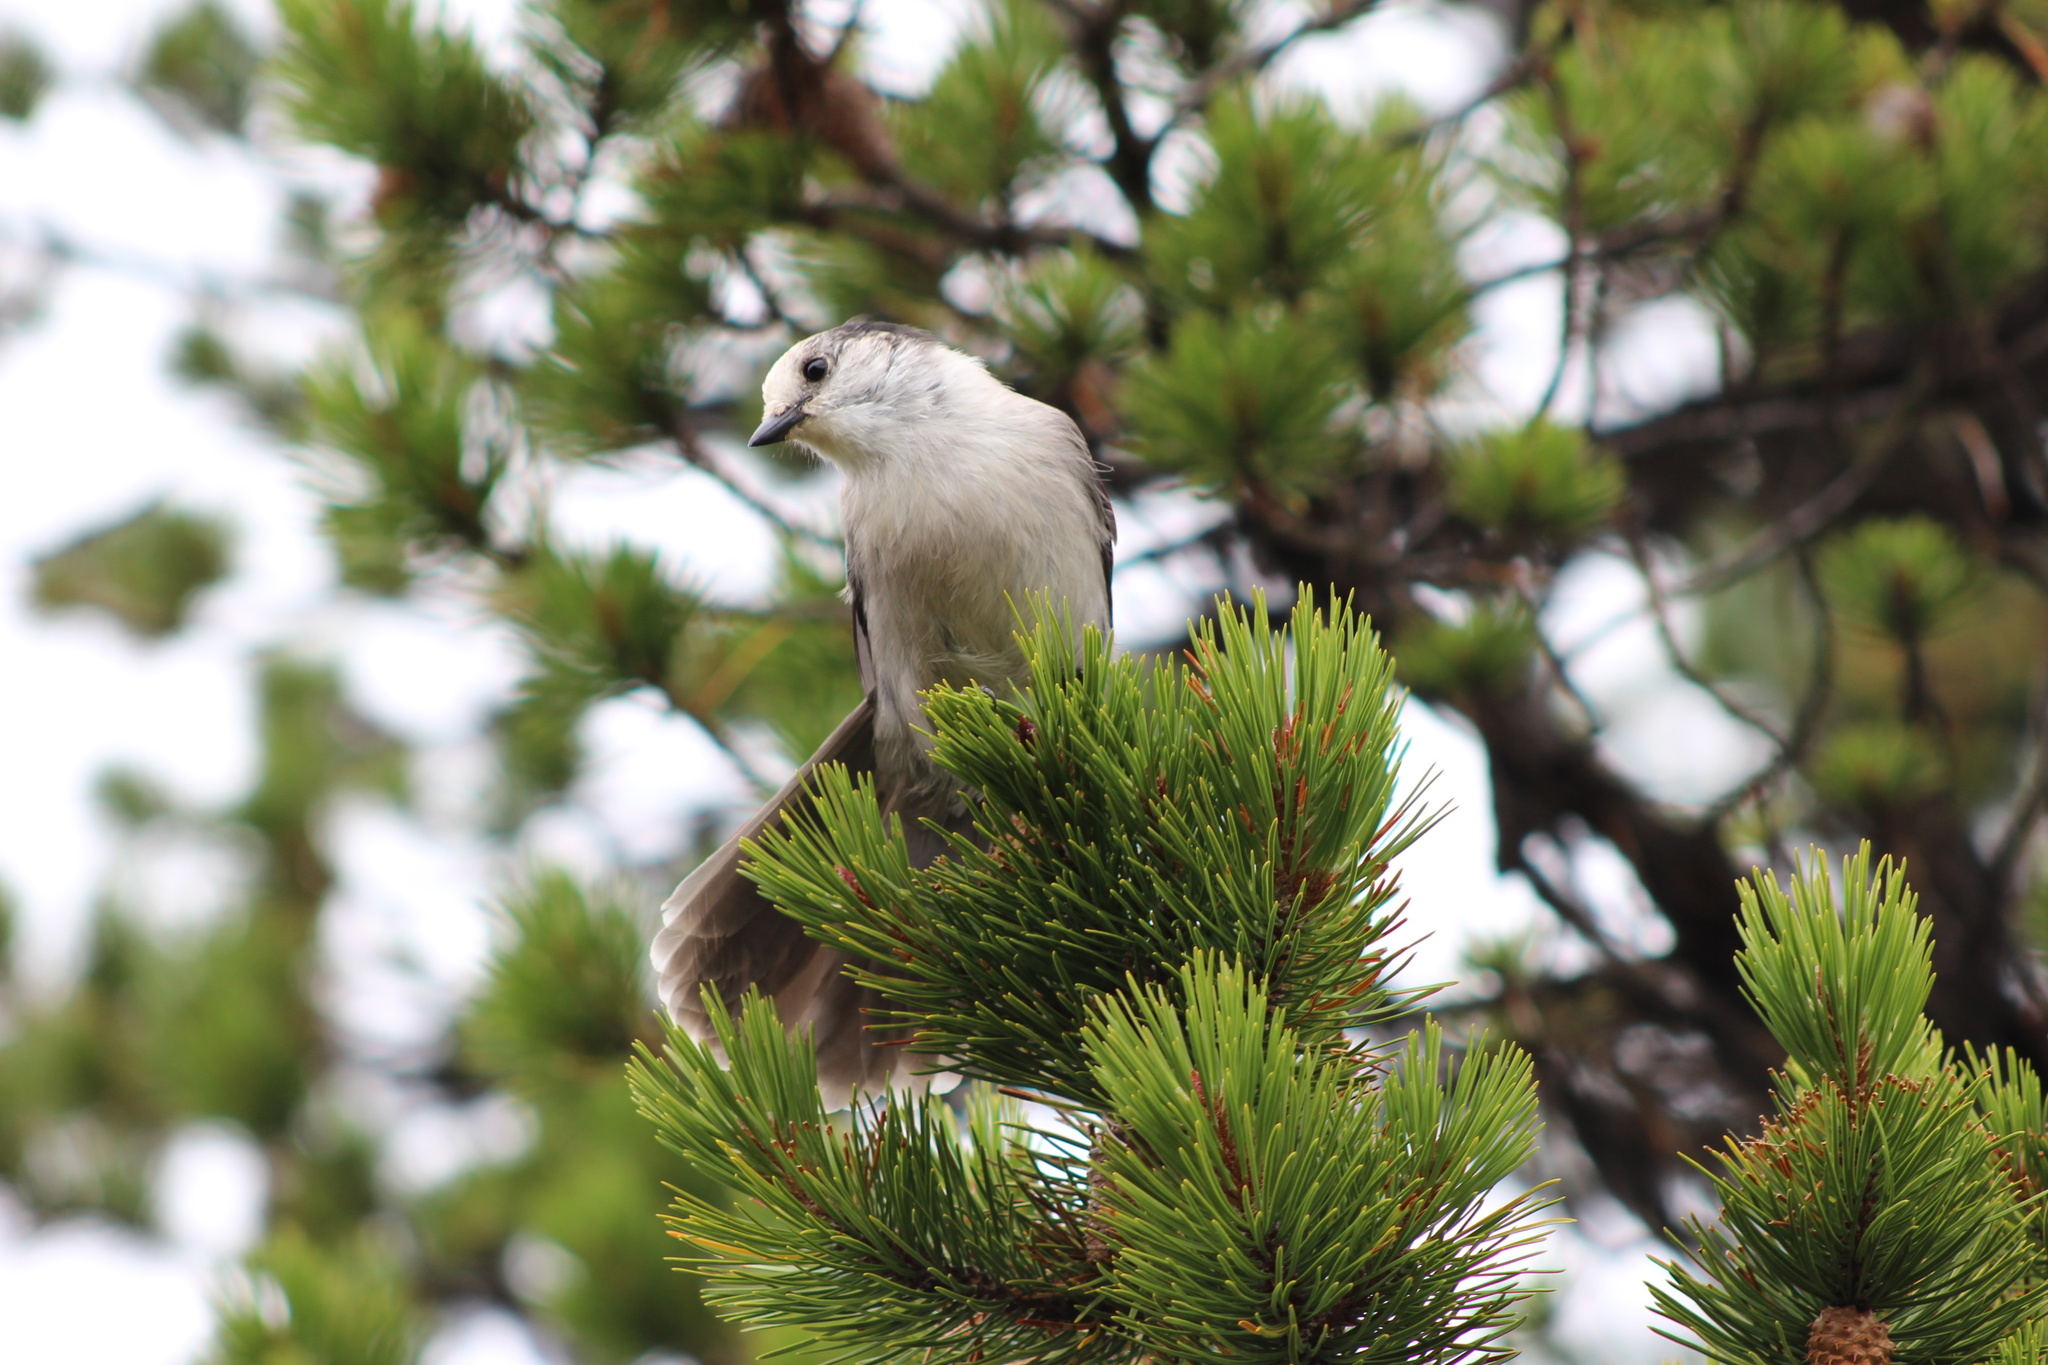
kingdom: Animalia
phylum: Chordata
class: Aves
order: Passeriformes
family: Corvidae
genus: Perisoreus
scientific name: Perisoreus canadensis
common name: Gray jay
